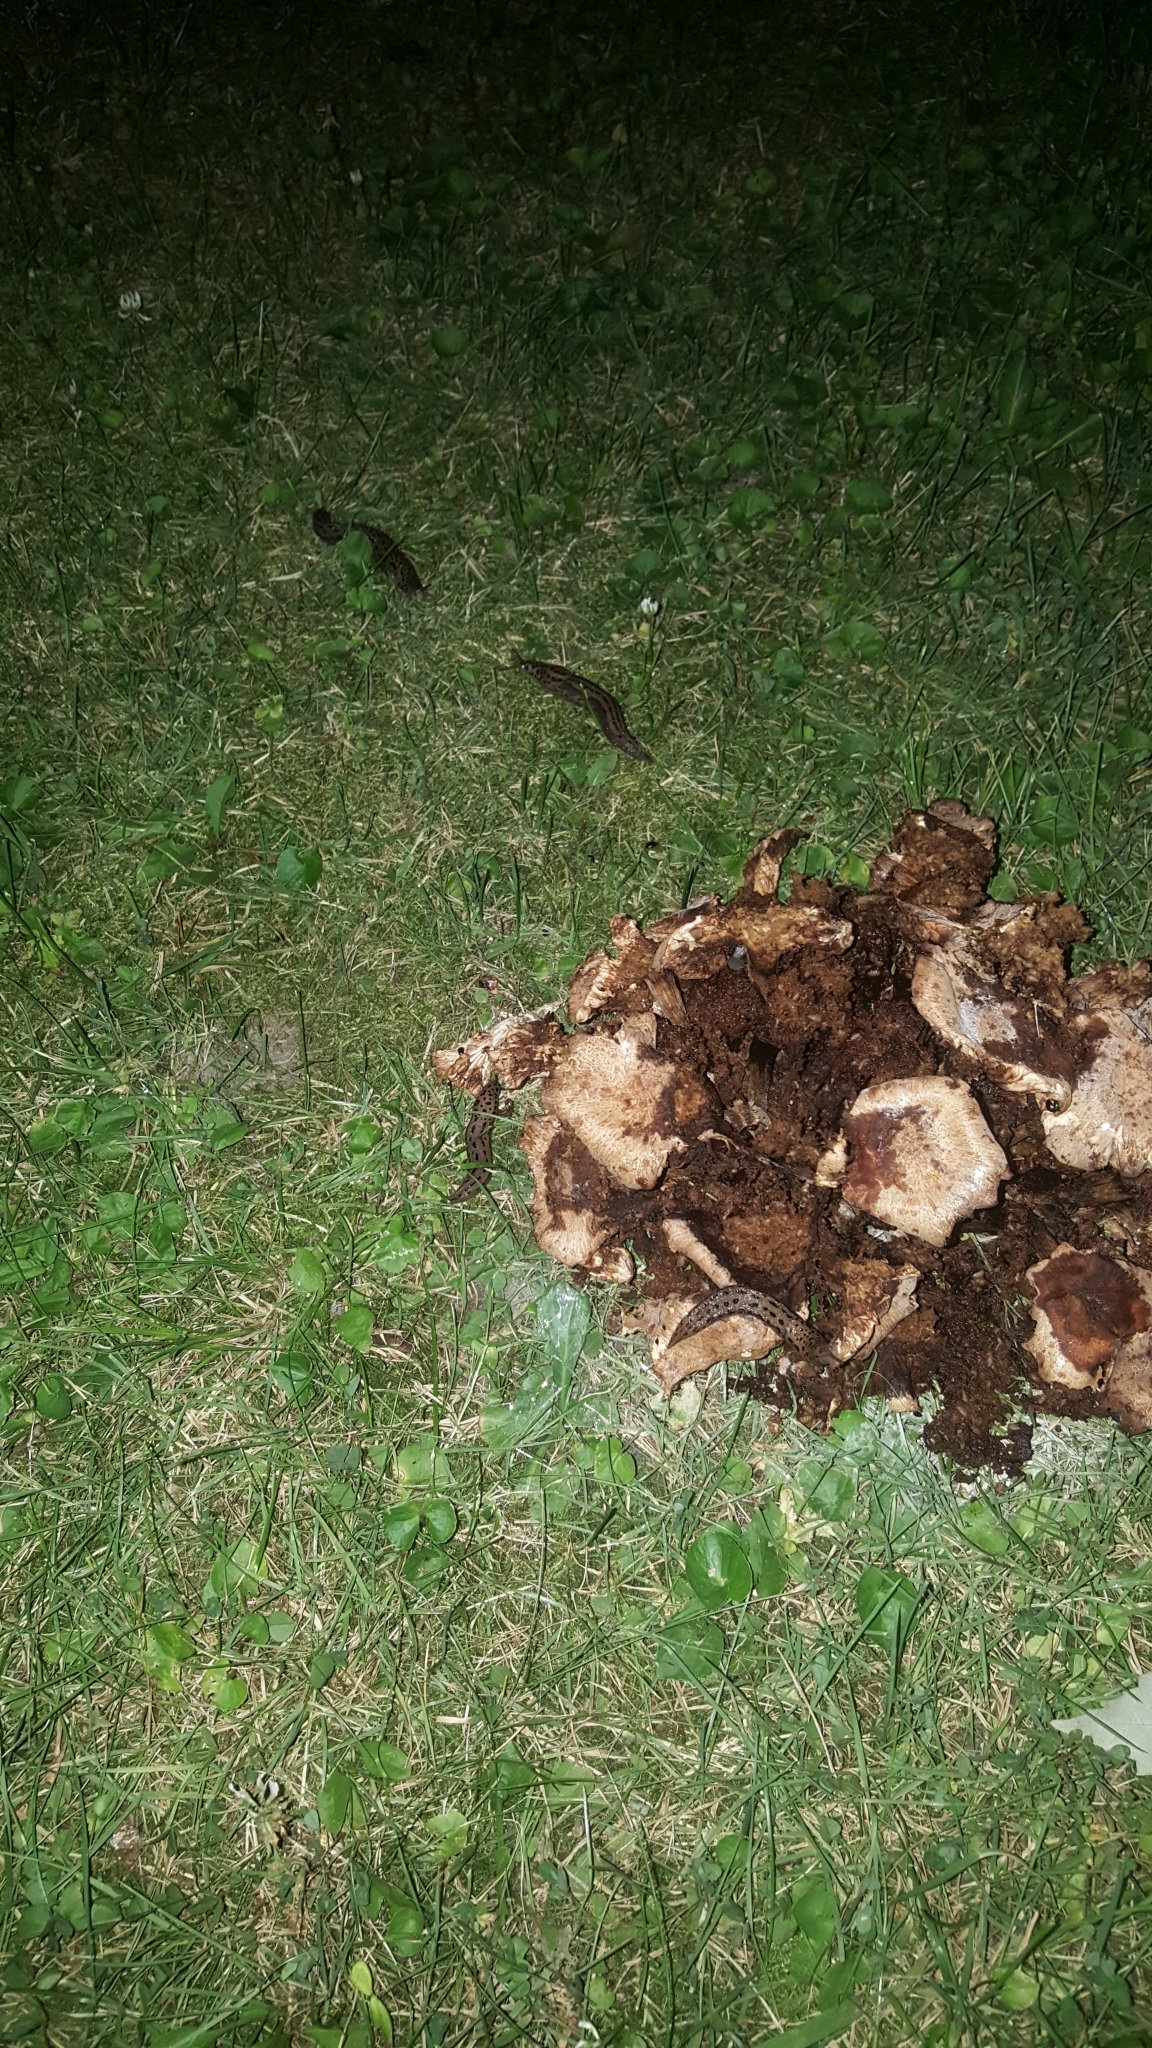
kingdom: Animalia
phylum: Mollusca
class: Gastropoda
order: Stylommatophora
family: Limacidae
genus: Limax
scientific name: Limax maximus
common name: Great grey slug
